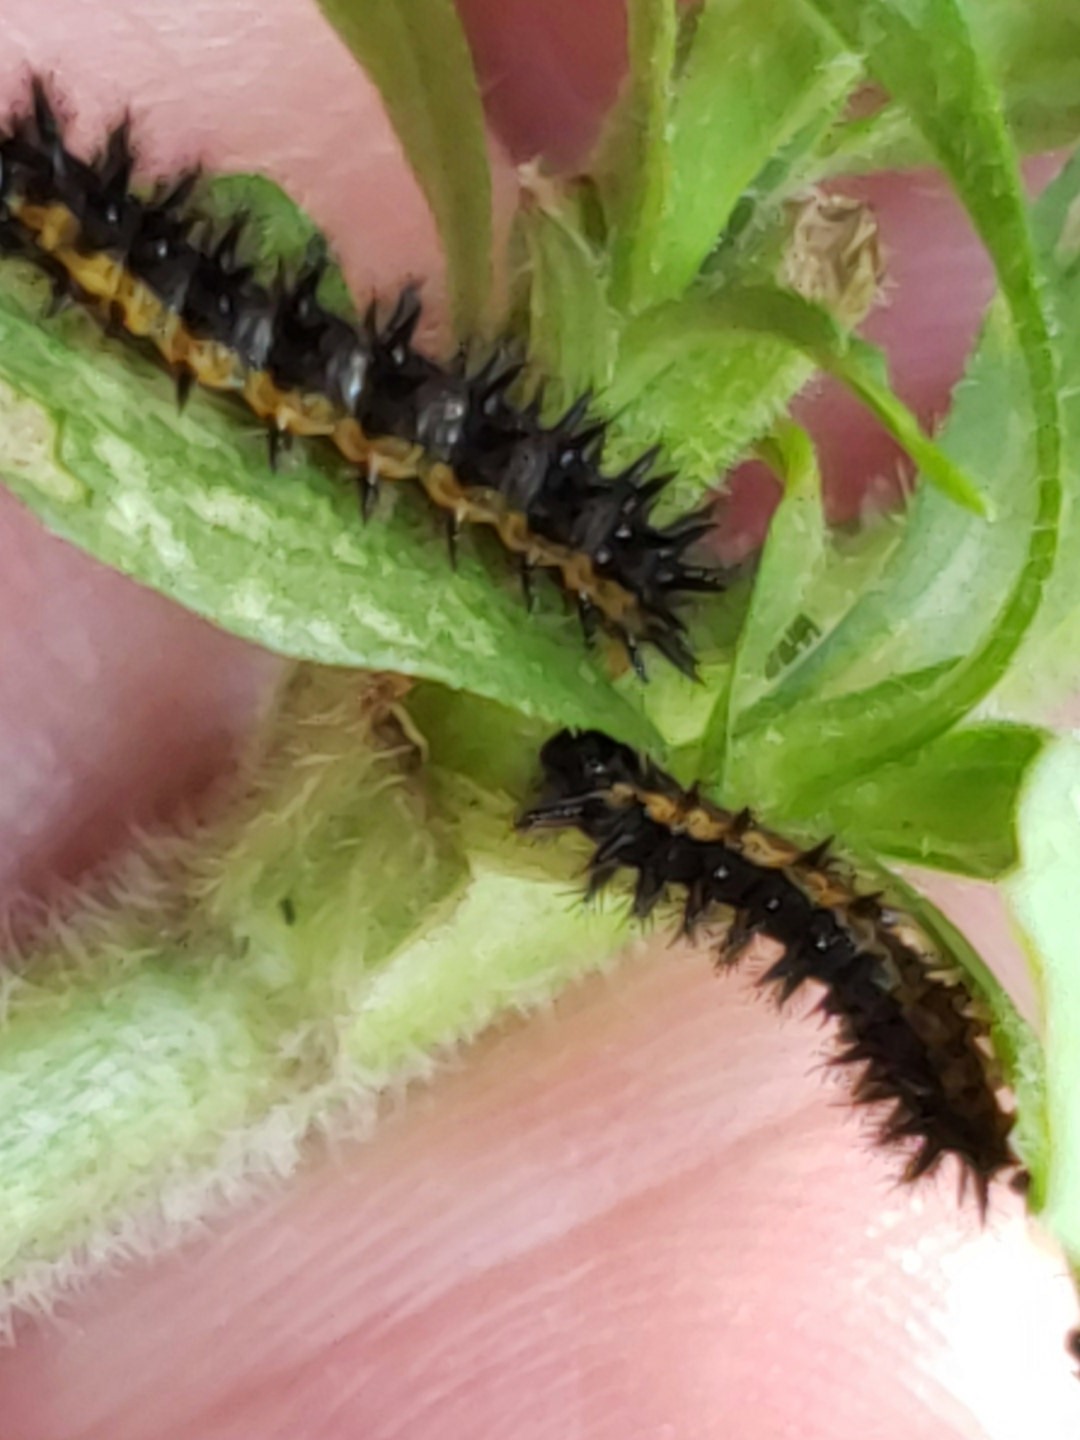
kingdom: Animalia
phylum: Arthropoda
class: Insecta
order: Lepidoptera
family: Nymphalidae
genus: Chlosyne
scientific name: Chlosyne nycteis
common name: Silvery checkerspot
